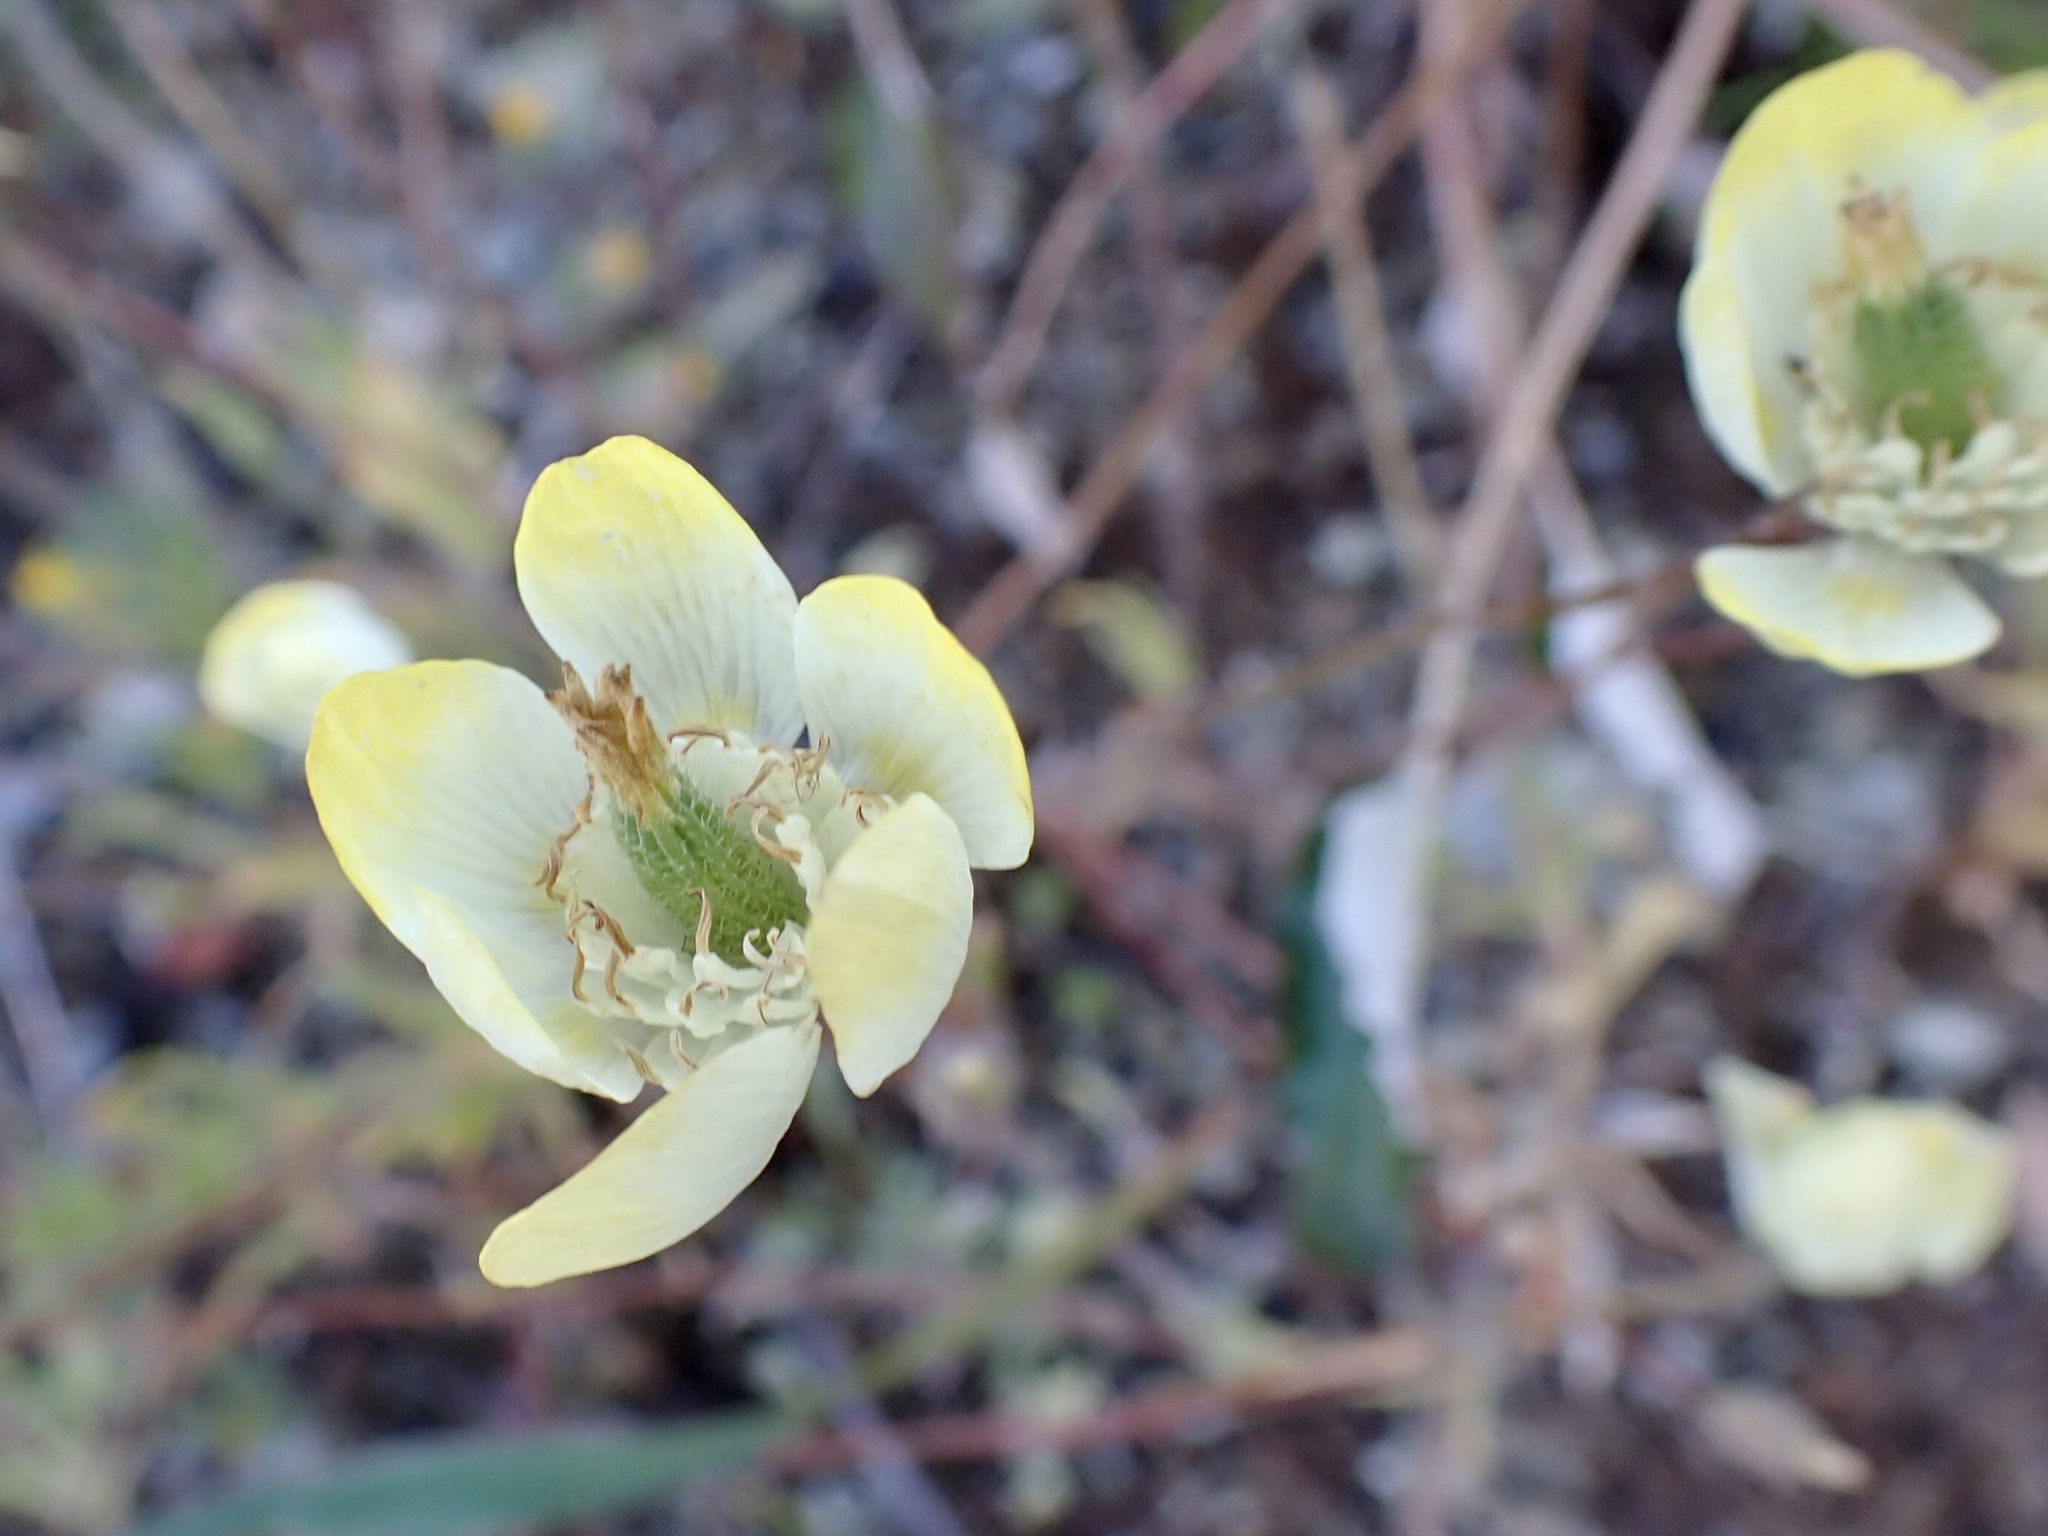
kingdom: Plantae
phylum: Tracheophyta
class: Magnoliopsida
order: Ranunculales
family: Papaveraceae
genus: Platystemon
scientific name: Platystemon californicus
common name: Cream-cups
